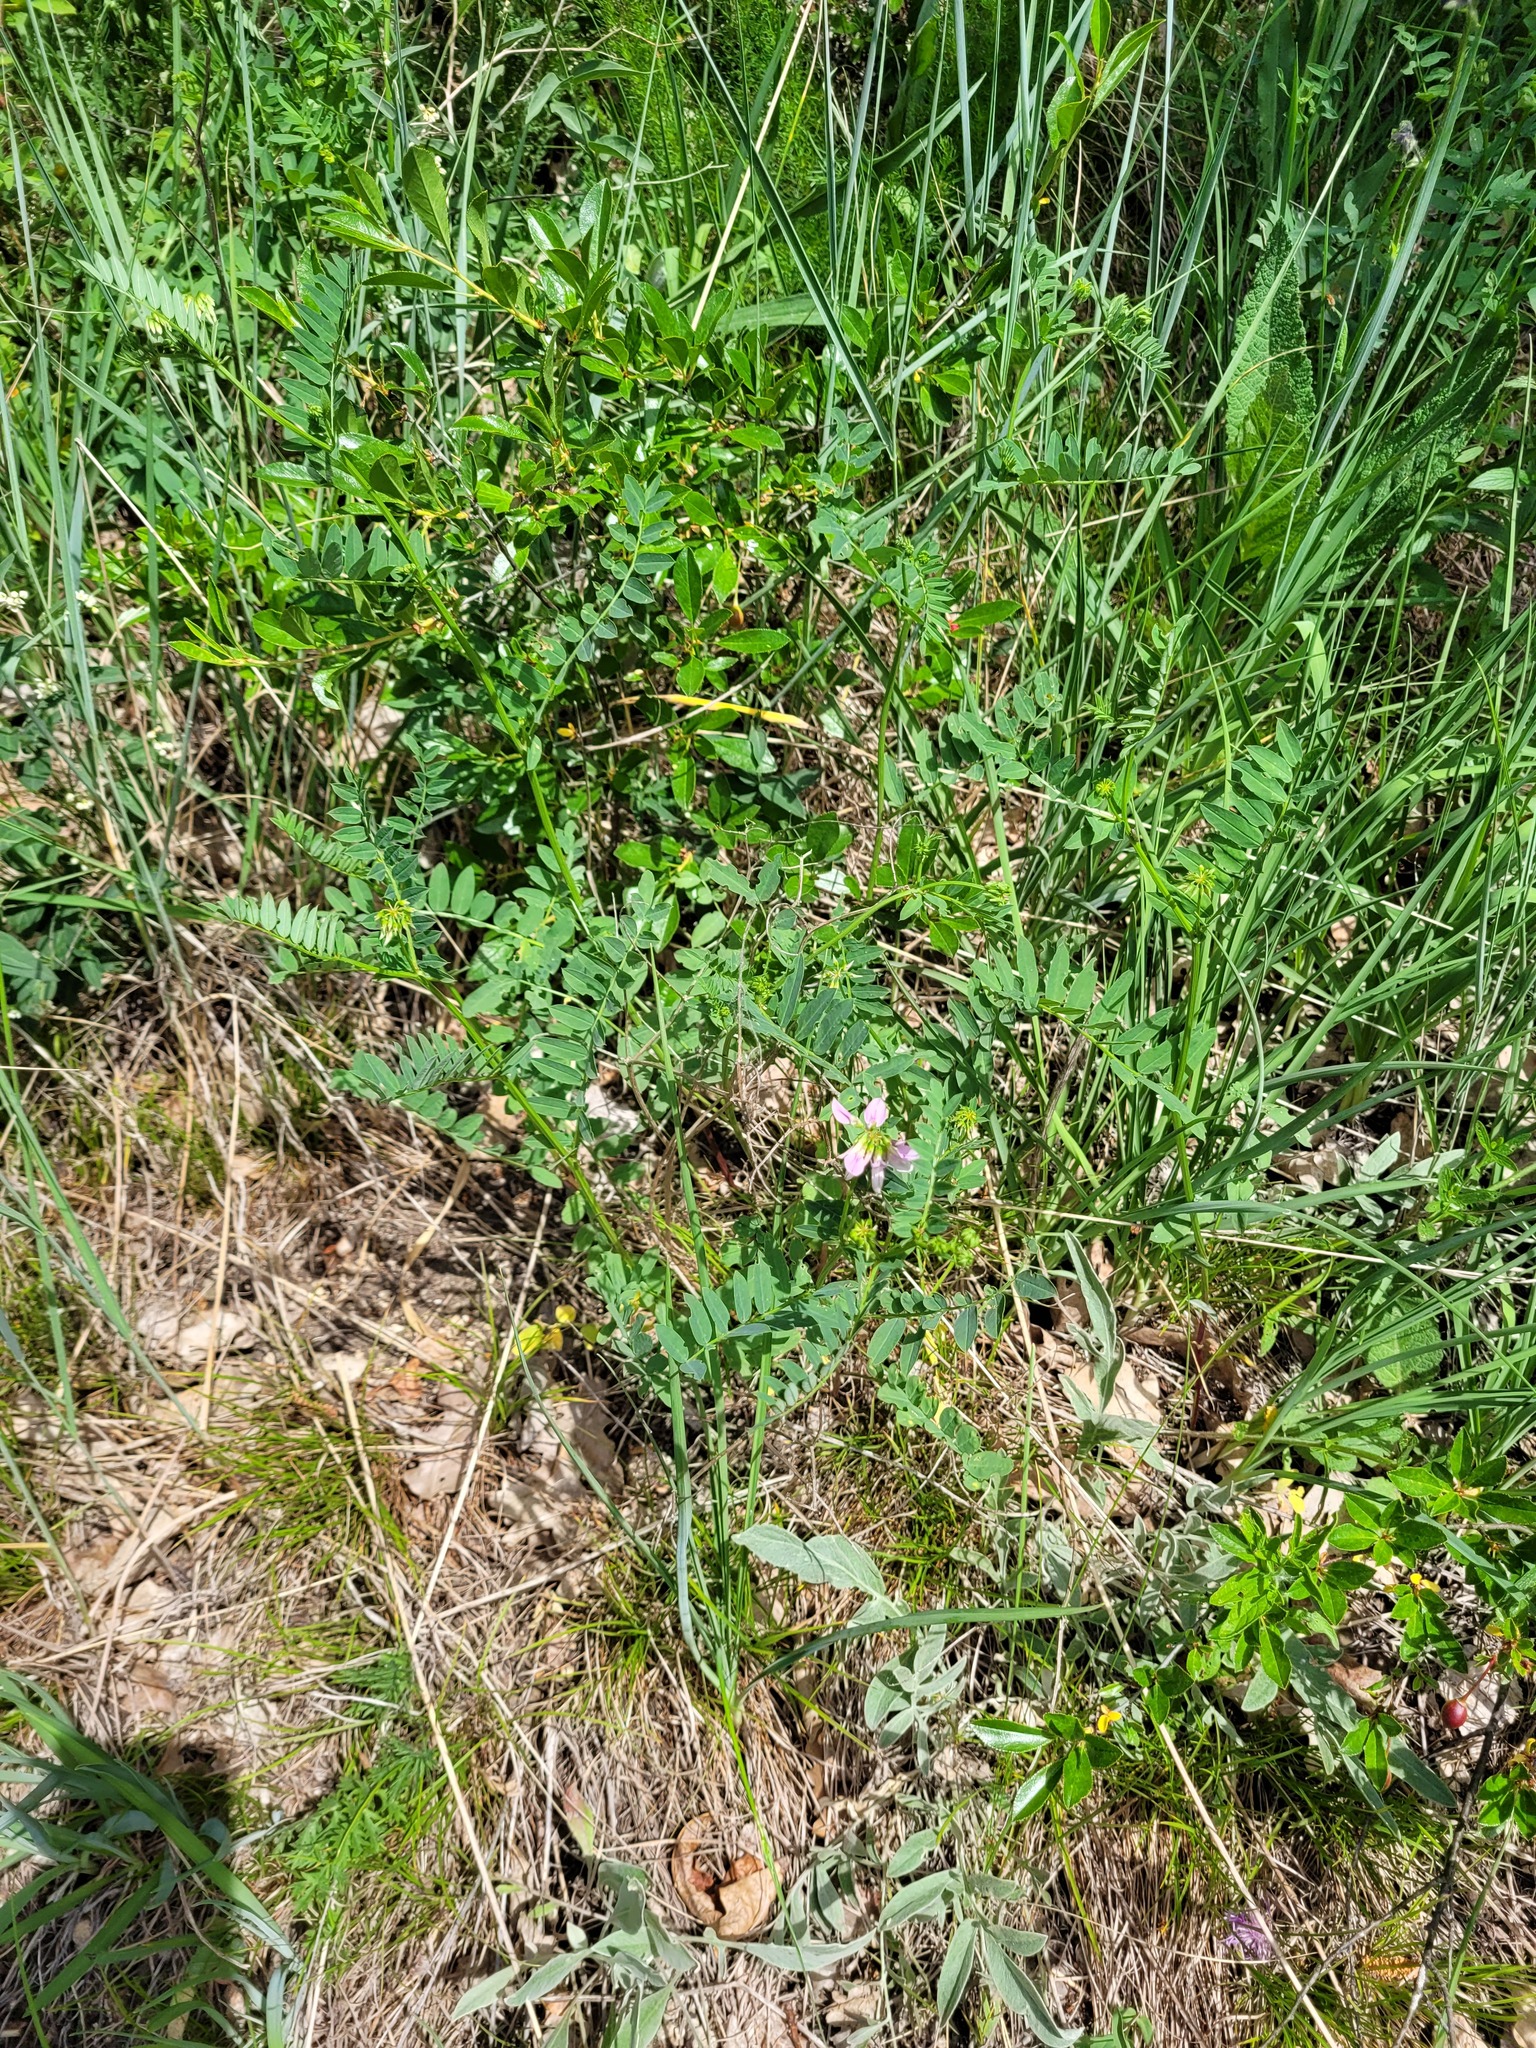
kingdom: Plantae
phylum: Tracheophyta
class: Magnoliopsida
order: Fabales
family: Fabaceae
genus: Coronilla
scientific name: Coronilla varia
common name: Crownvetch
